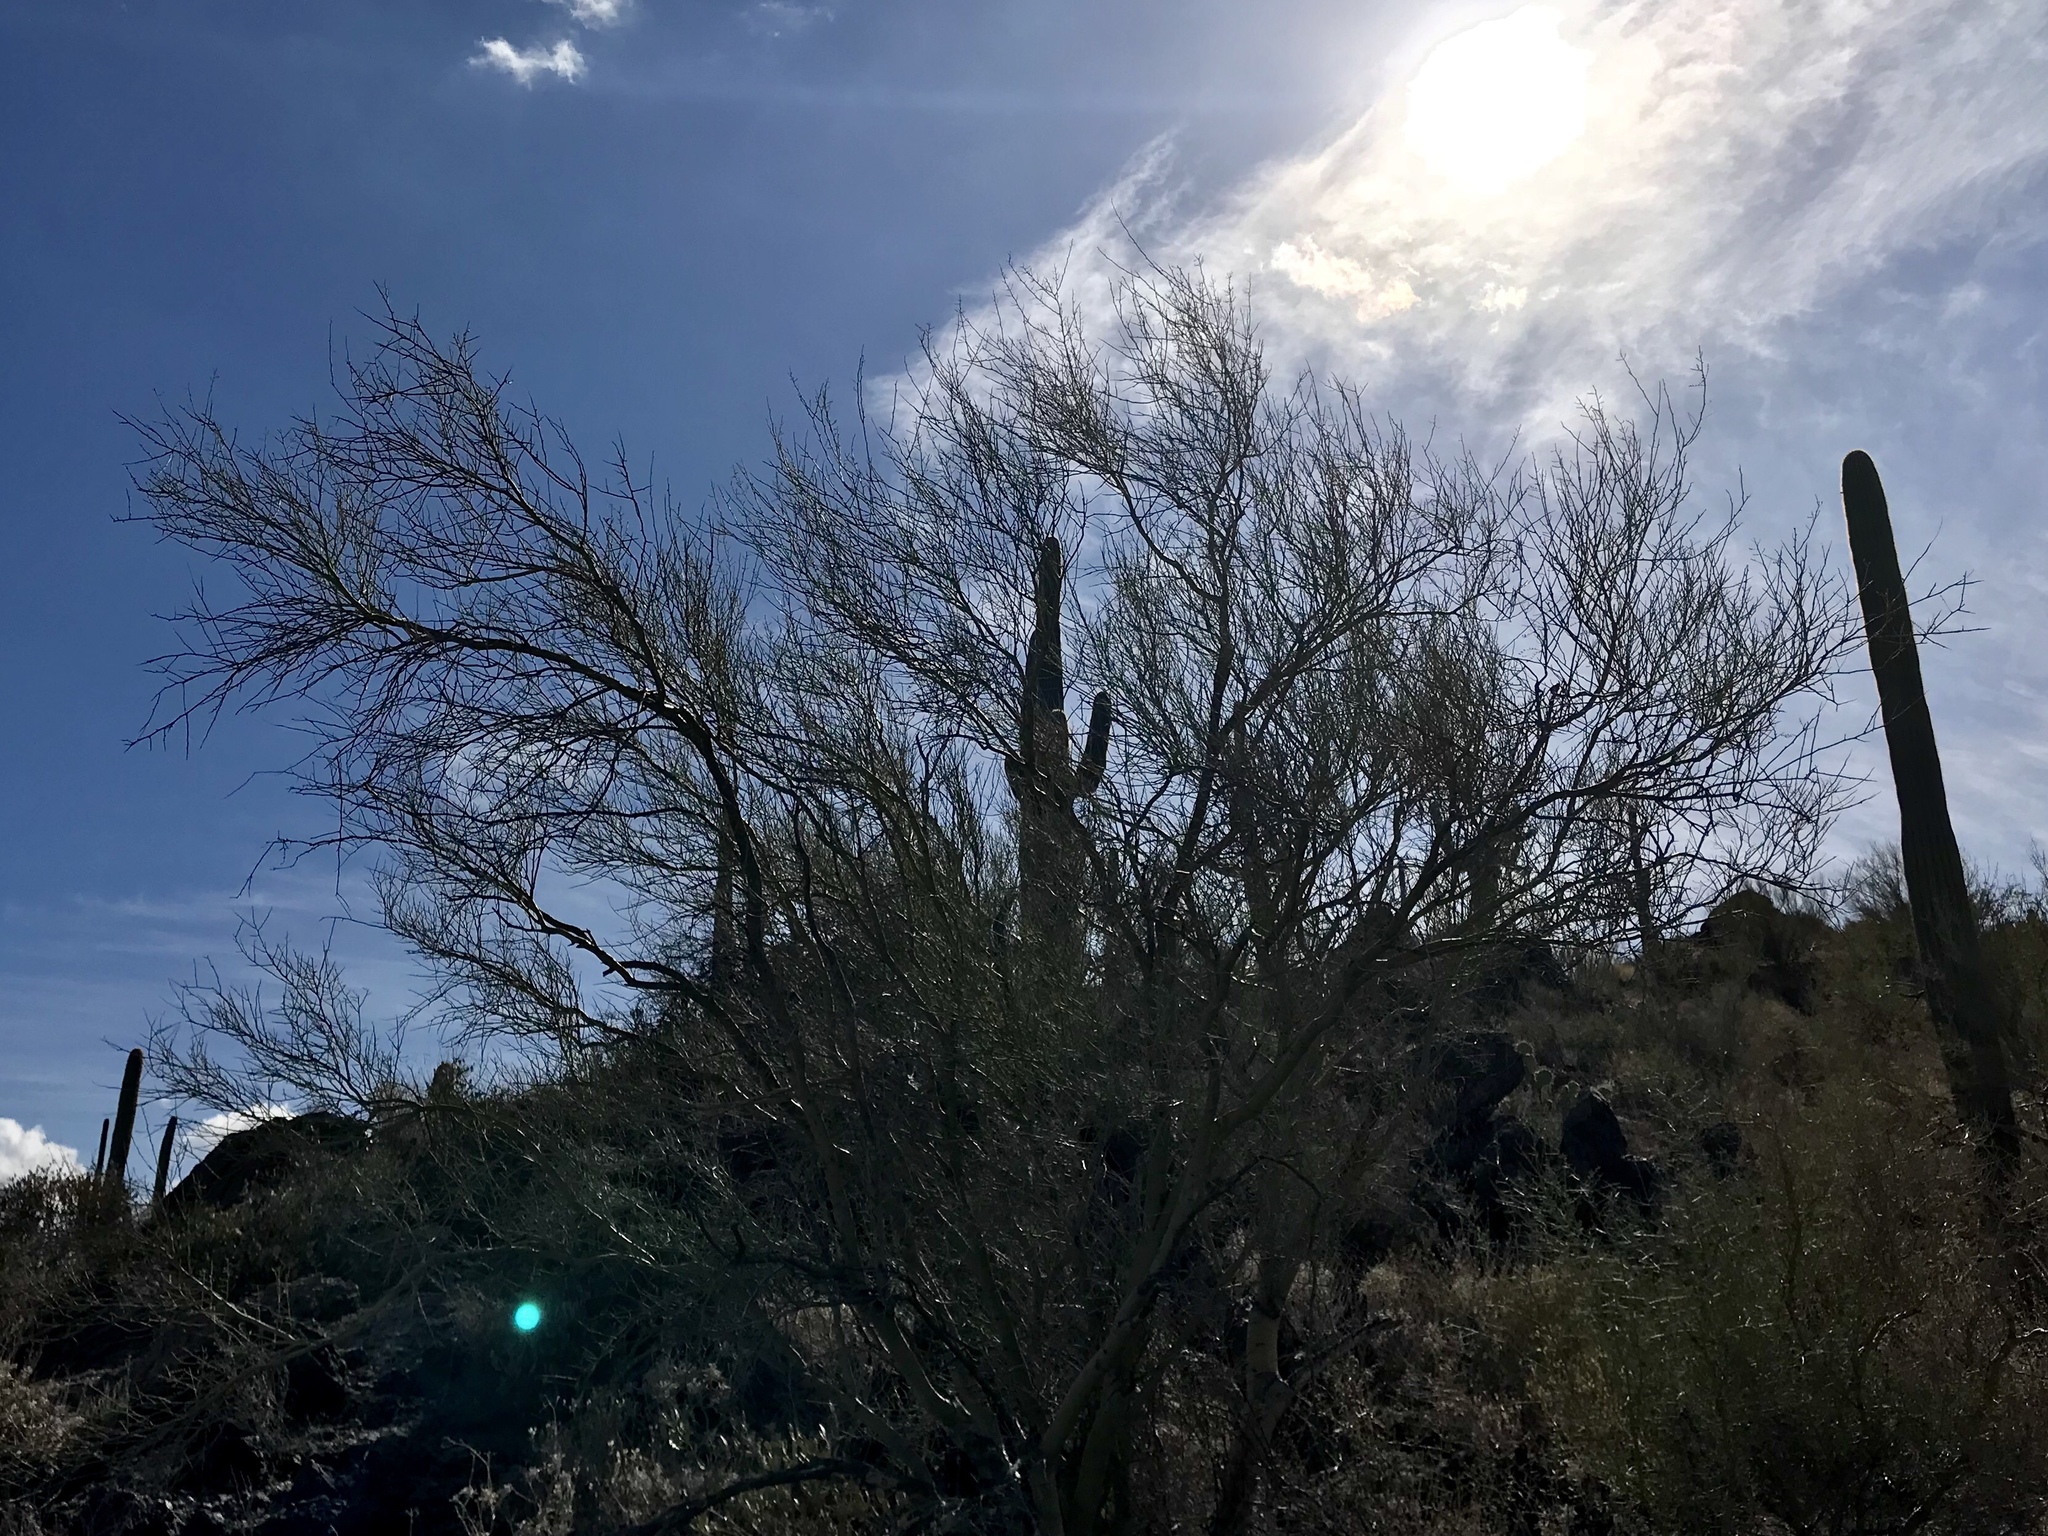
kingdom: Plantae
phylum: Tracheophyta
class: Magnoliopsida
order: Fabales
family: Fabaceae
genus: Parkinsonia
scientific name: Parkinsonia microphylla
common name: Yellow paloverde
